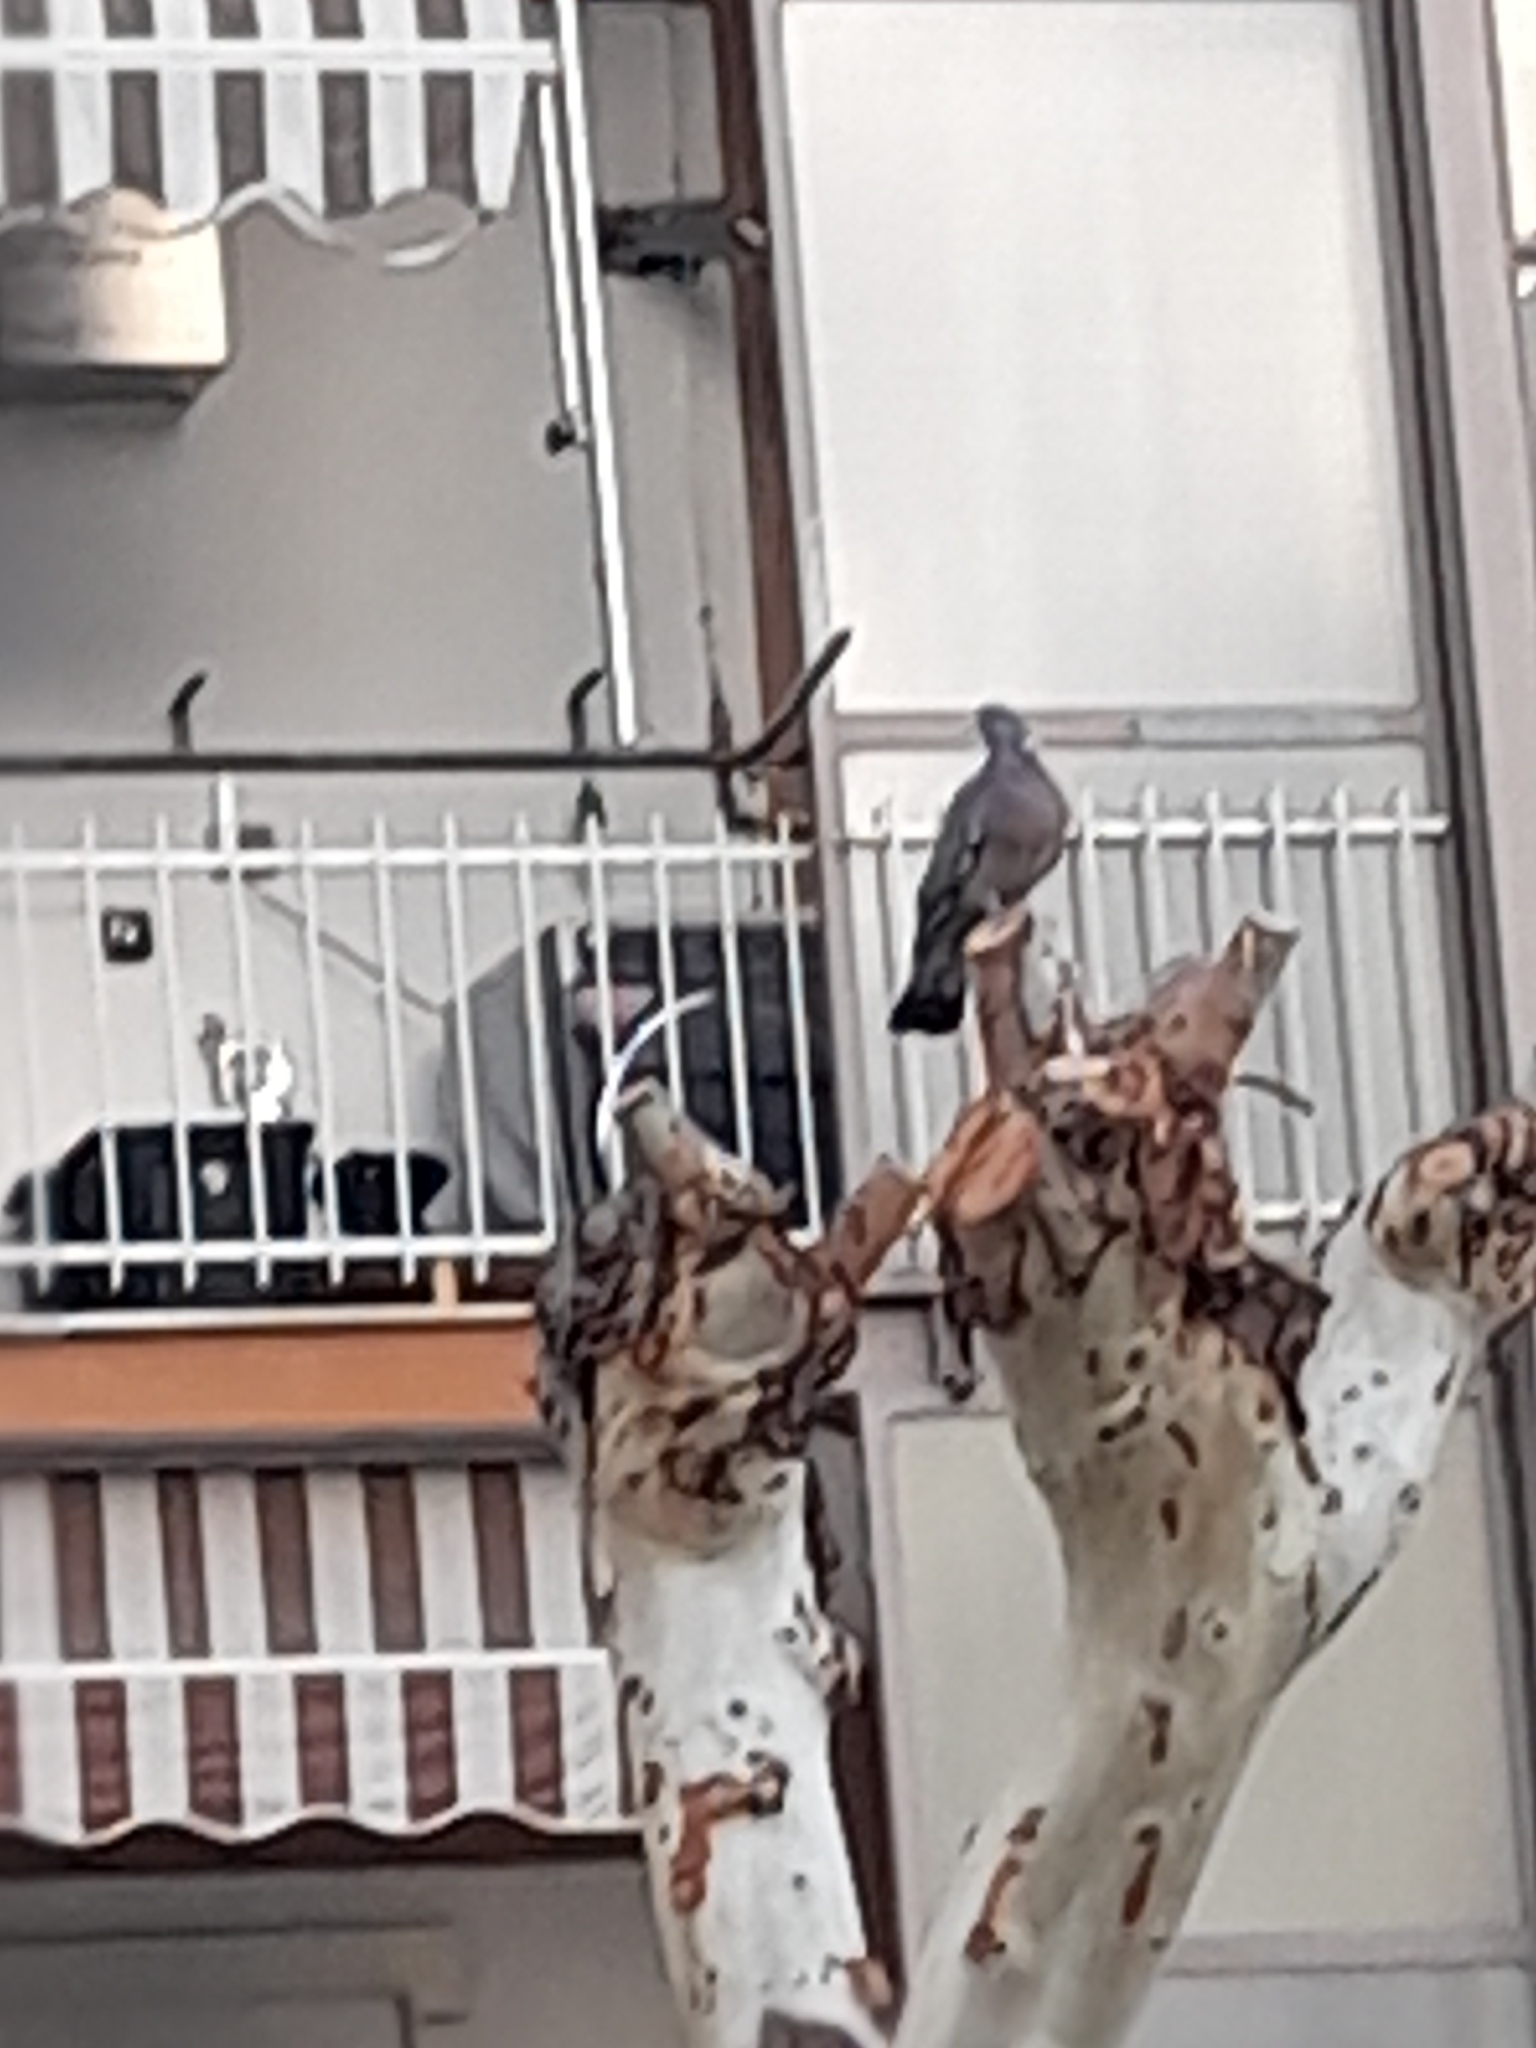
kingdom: Animalia
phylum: Chordata
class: Aves
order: Columbiformes
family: Columbidae
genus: Columba
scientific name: Columba palumbus
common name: Common wood pigeon
